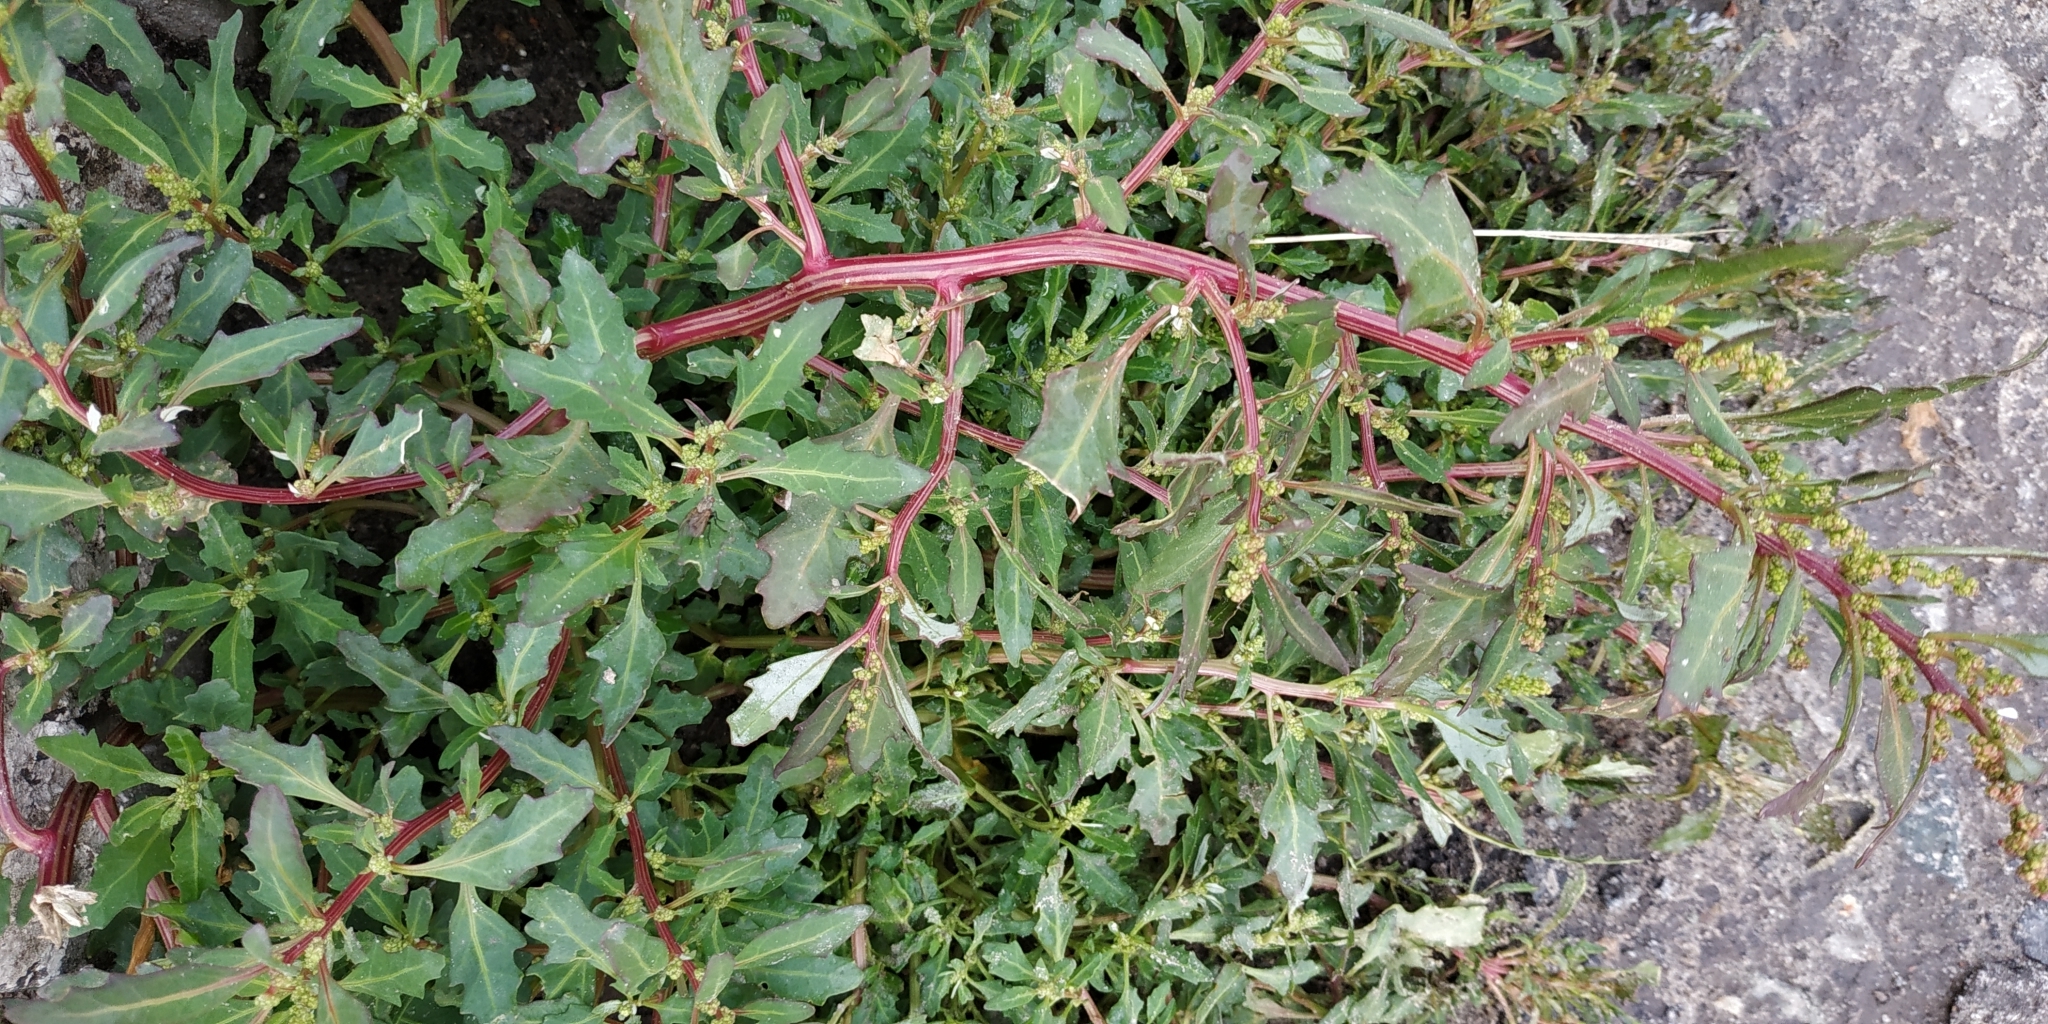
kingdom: Plantae
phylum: Tracheophyta
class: Magnoliopsida
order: Caryophyllales
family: Amaranthaceae
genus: Oxybasis
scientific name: Oxybasis glauca
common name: Glaucous goosefoot
